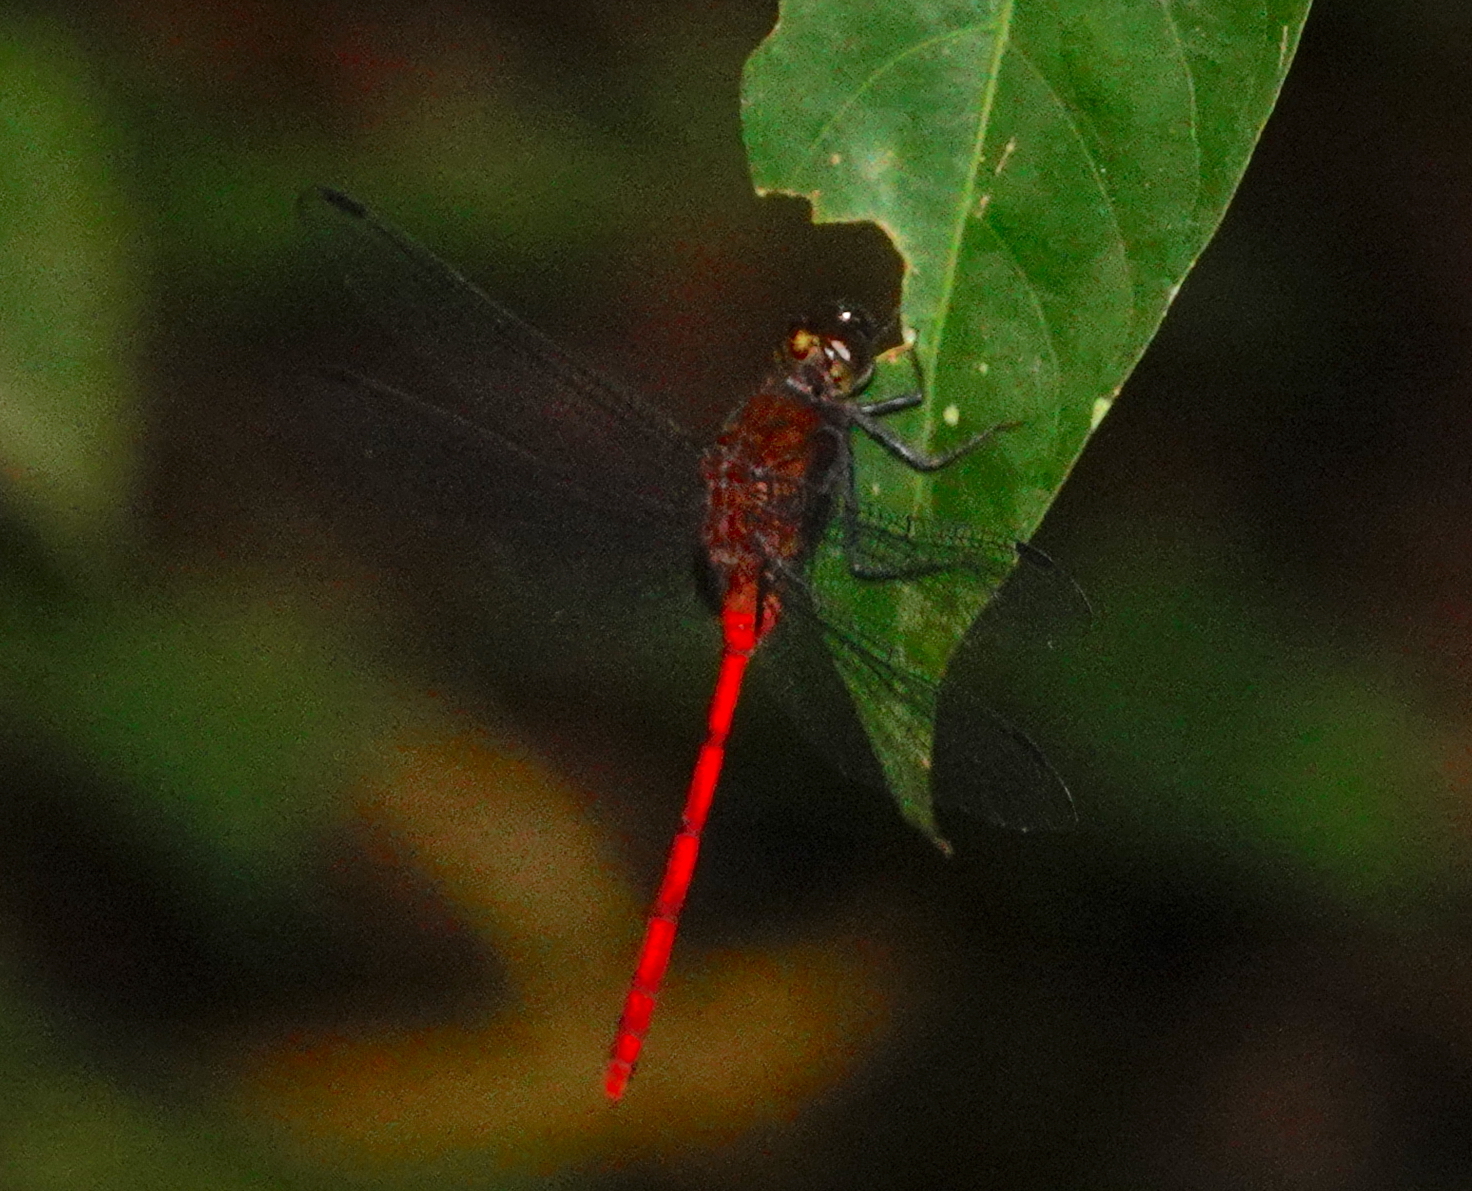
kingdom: Animalia
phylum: Arthropoda
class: Insecta
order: Odonata
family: Libellulidae
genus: Erythemis
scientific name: Erythemis haematogastra
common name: Red pondhawk
